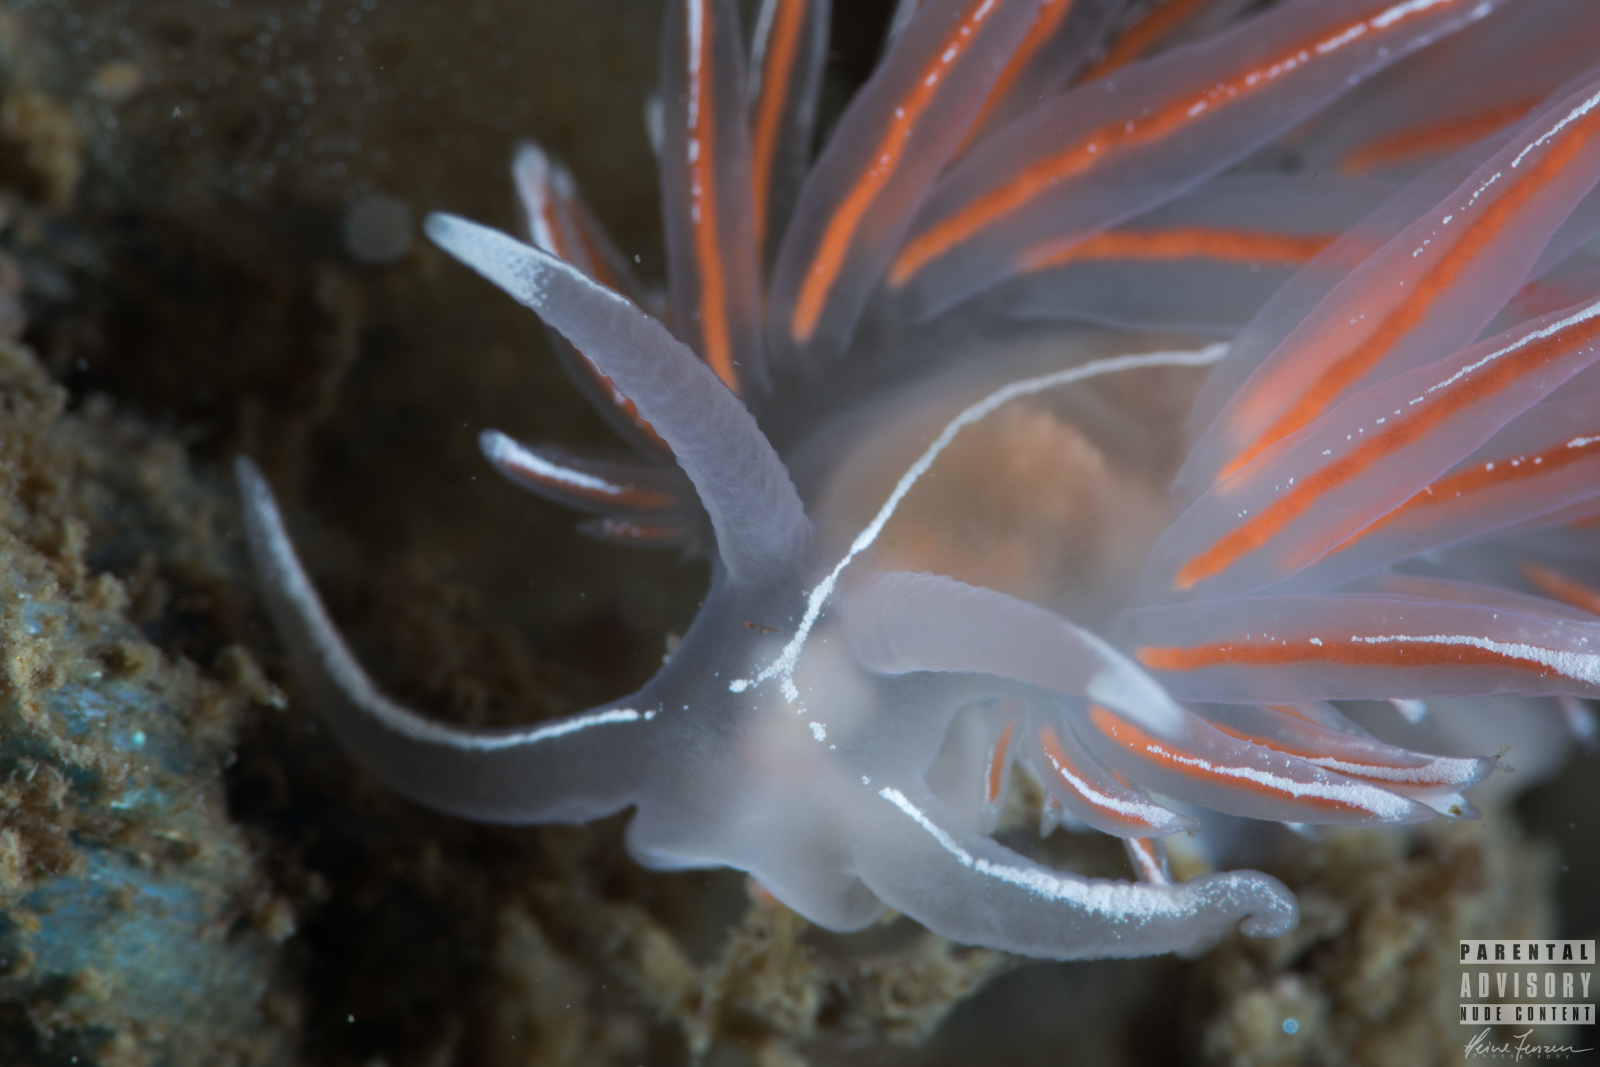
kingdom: Animalia
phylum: Mollusca
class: Gastropoda
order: Nudibranchia
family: Coryphellidae
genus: Coryphella
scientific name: Coryphella lineata
